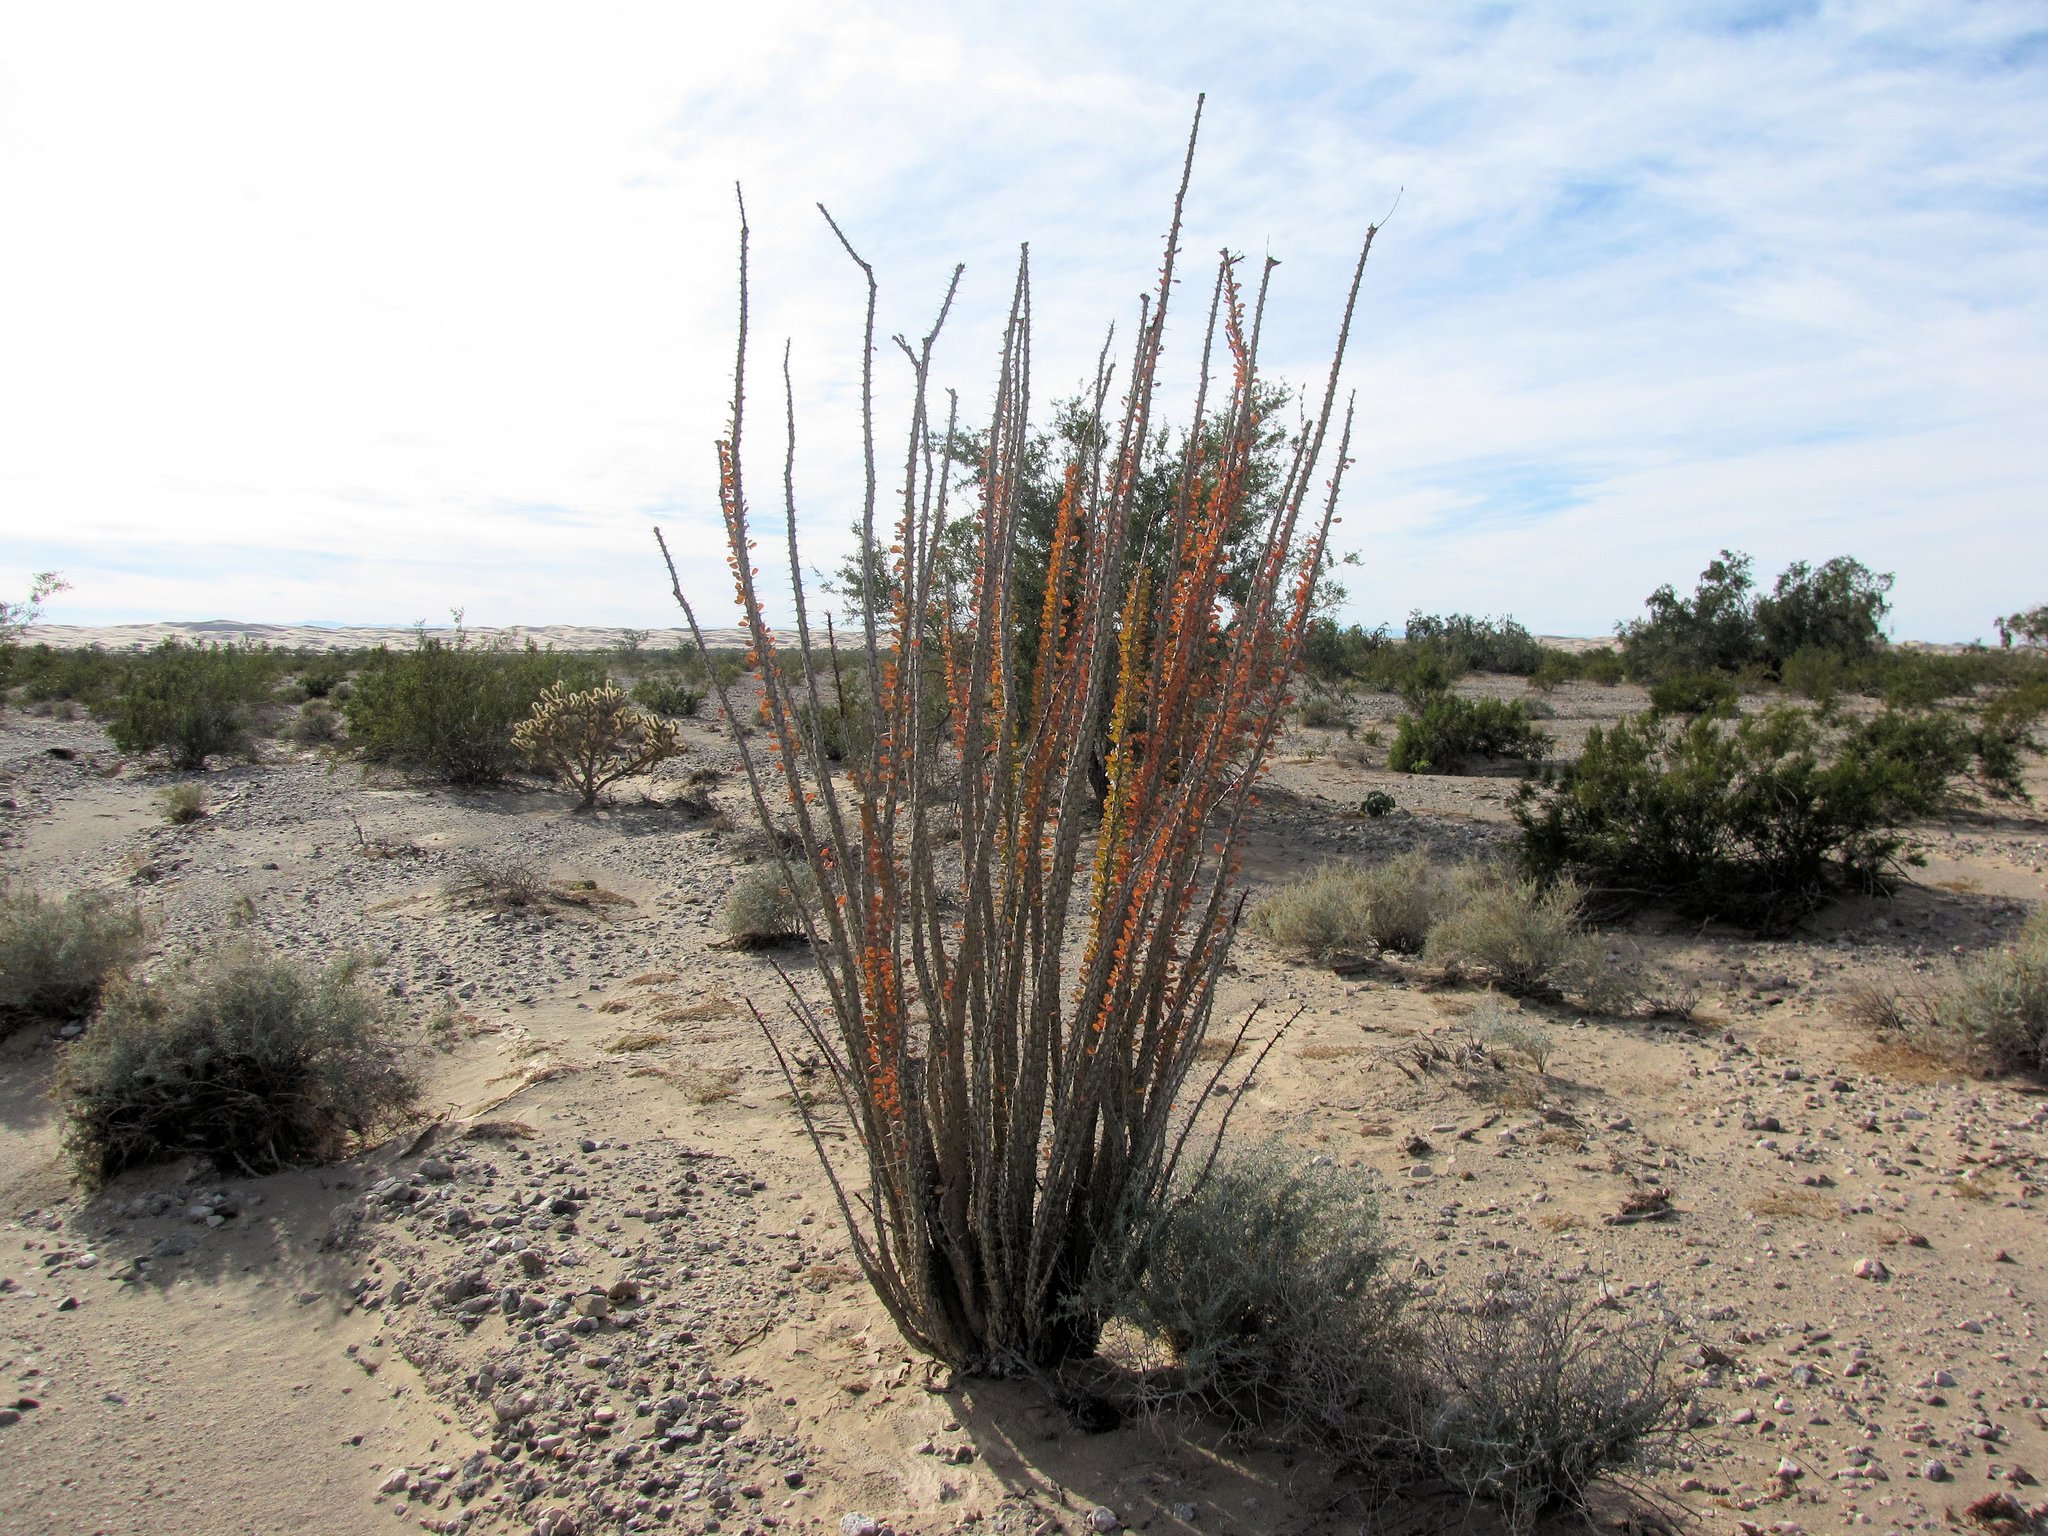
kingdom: Plantae
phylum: Tracheophyta
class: Magnoliopsida
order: Ericales
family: Fouquieriaceae
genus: Fouquieria
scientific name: Fouquieria splendens
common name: Vine-cactus
